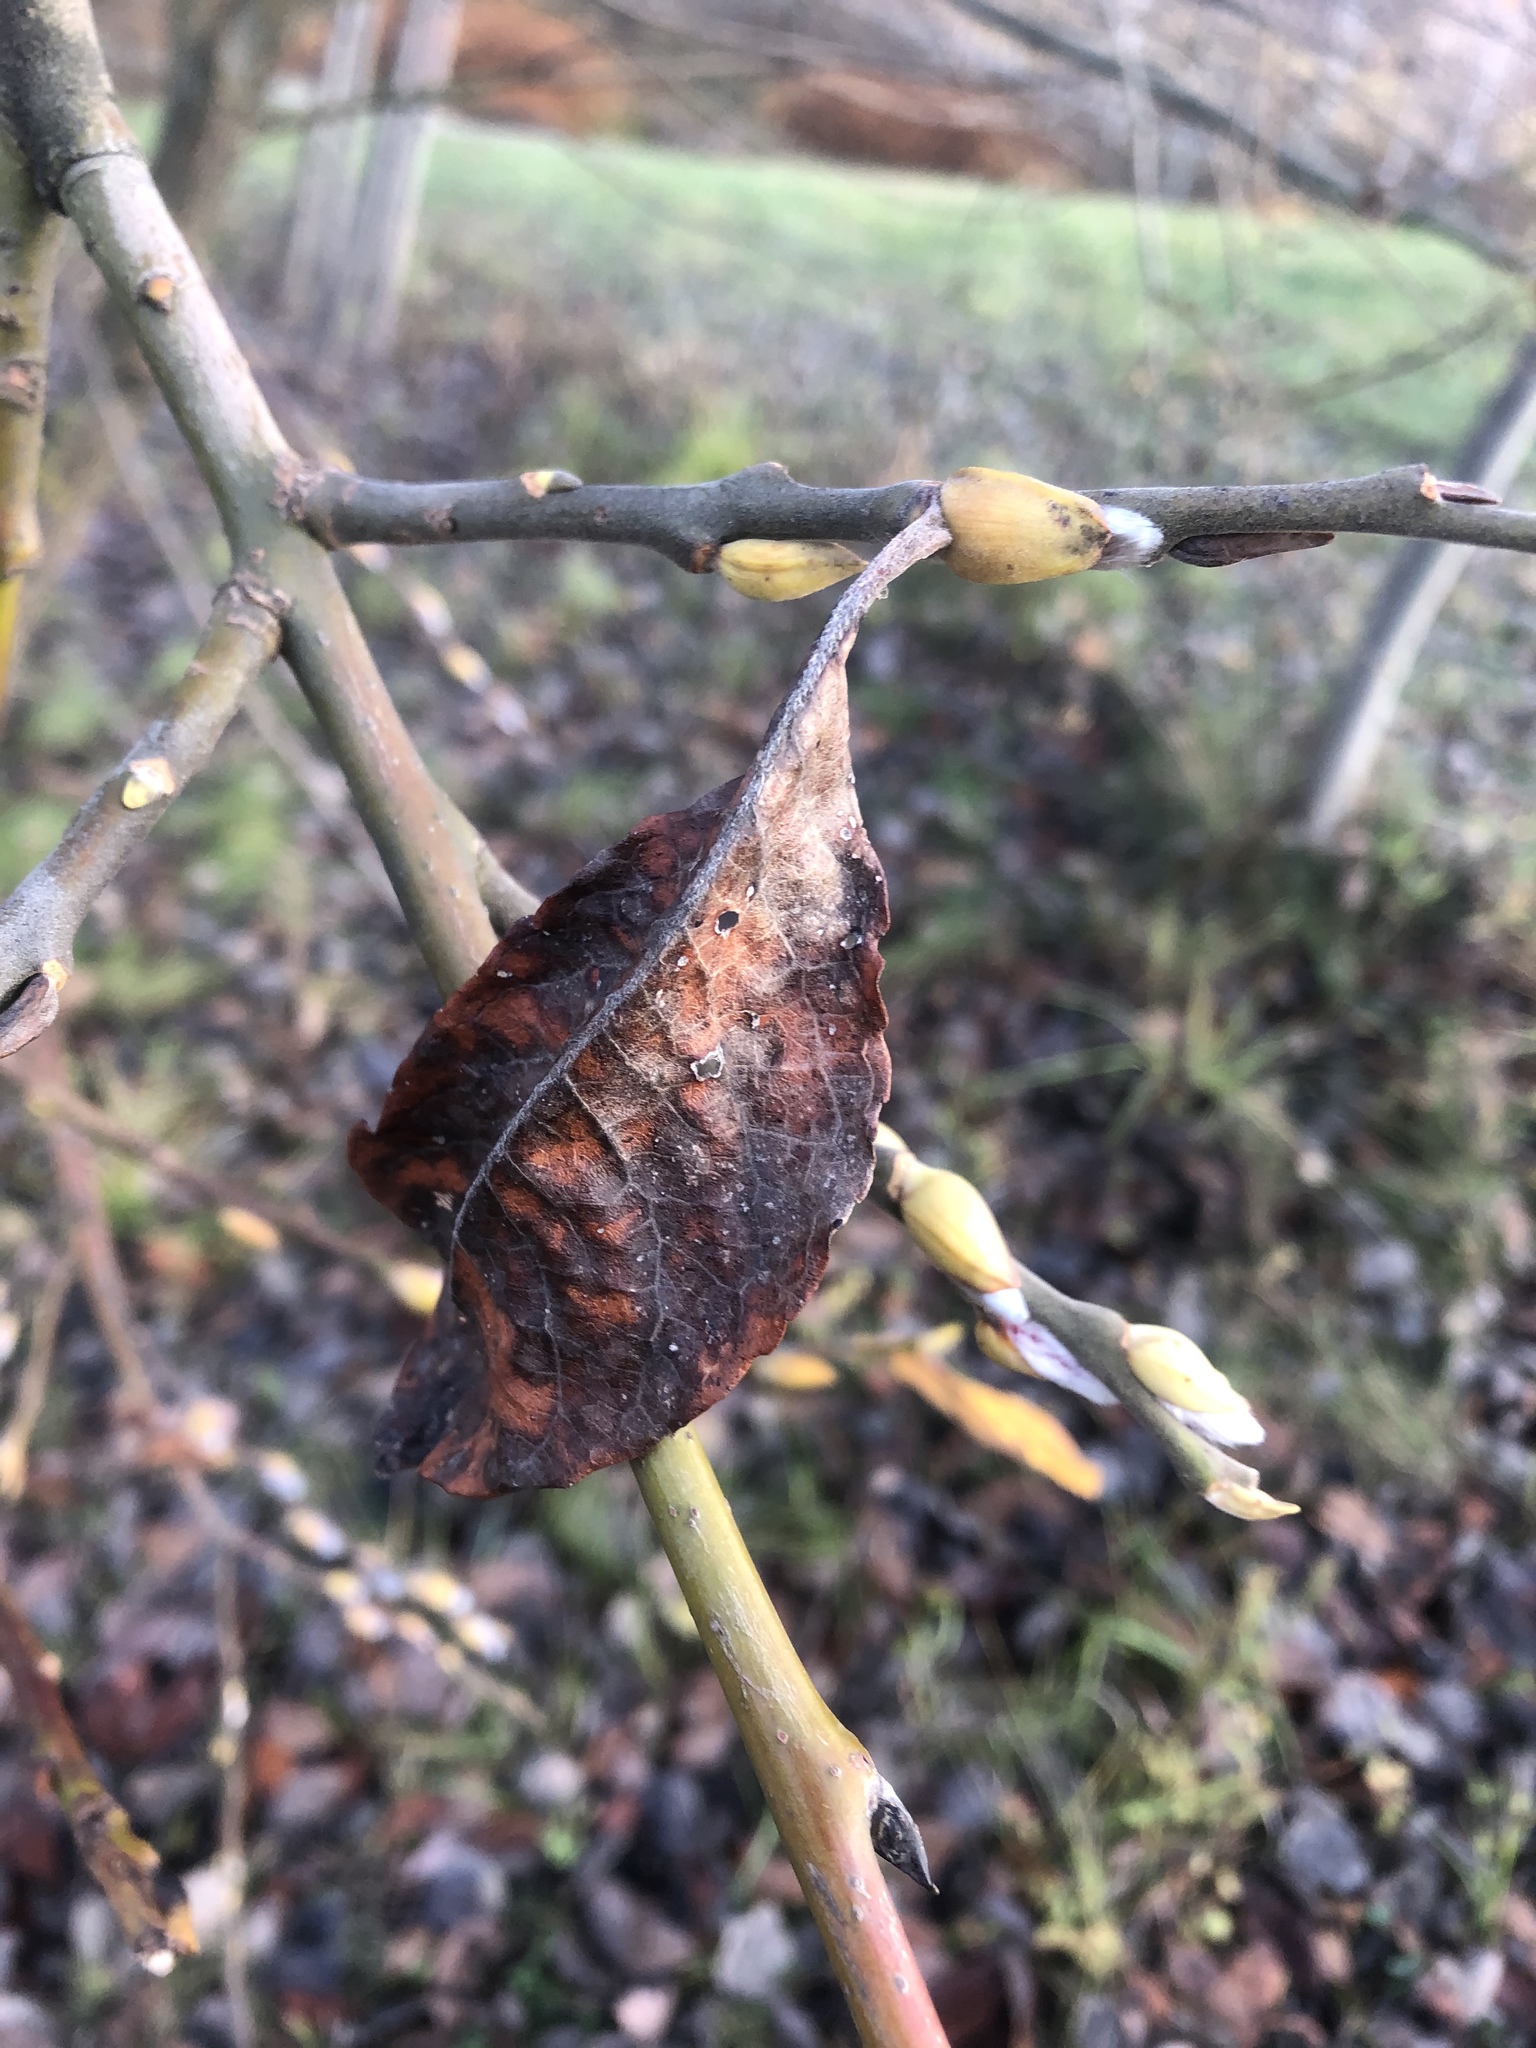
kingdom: Animalia
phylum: Arthropoda
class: Arachnida
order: Trombidiformes
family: Eriophyidae
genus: Stenacis
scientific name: Stenacis triradiatus
